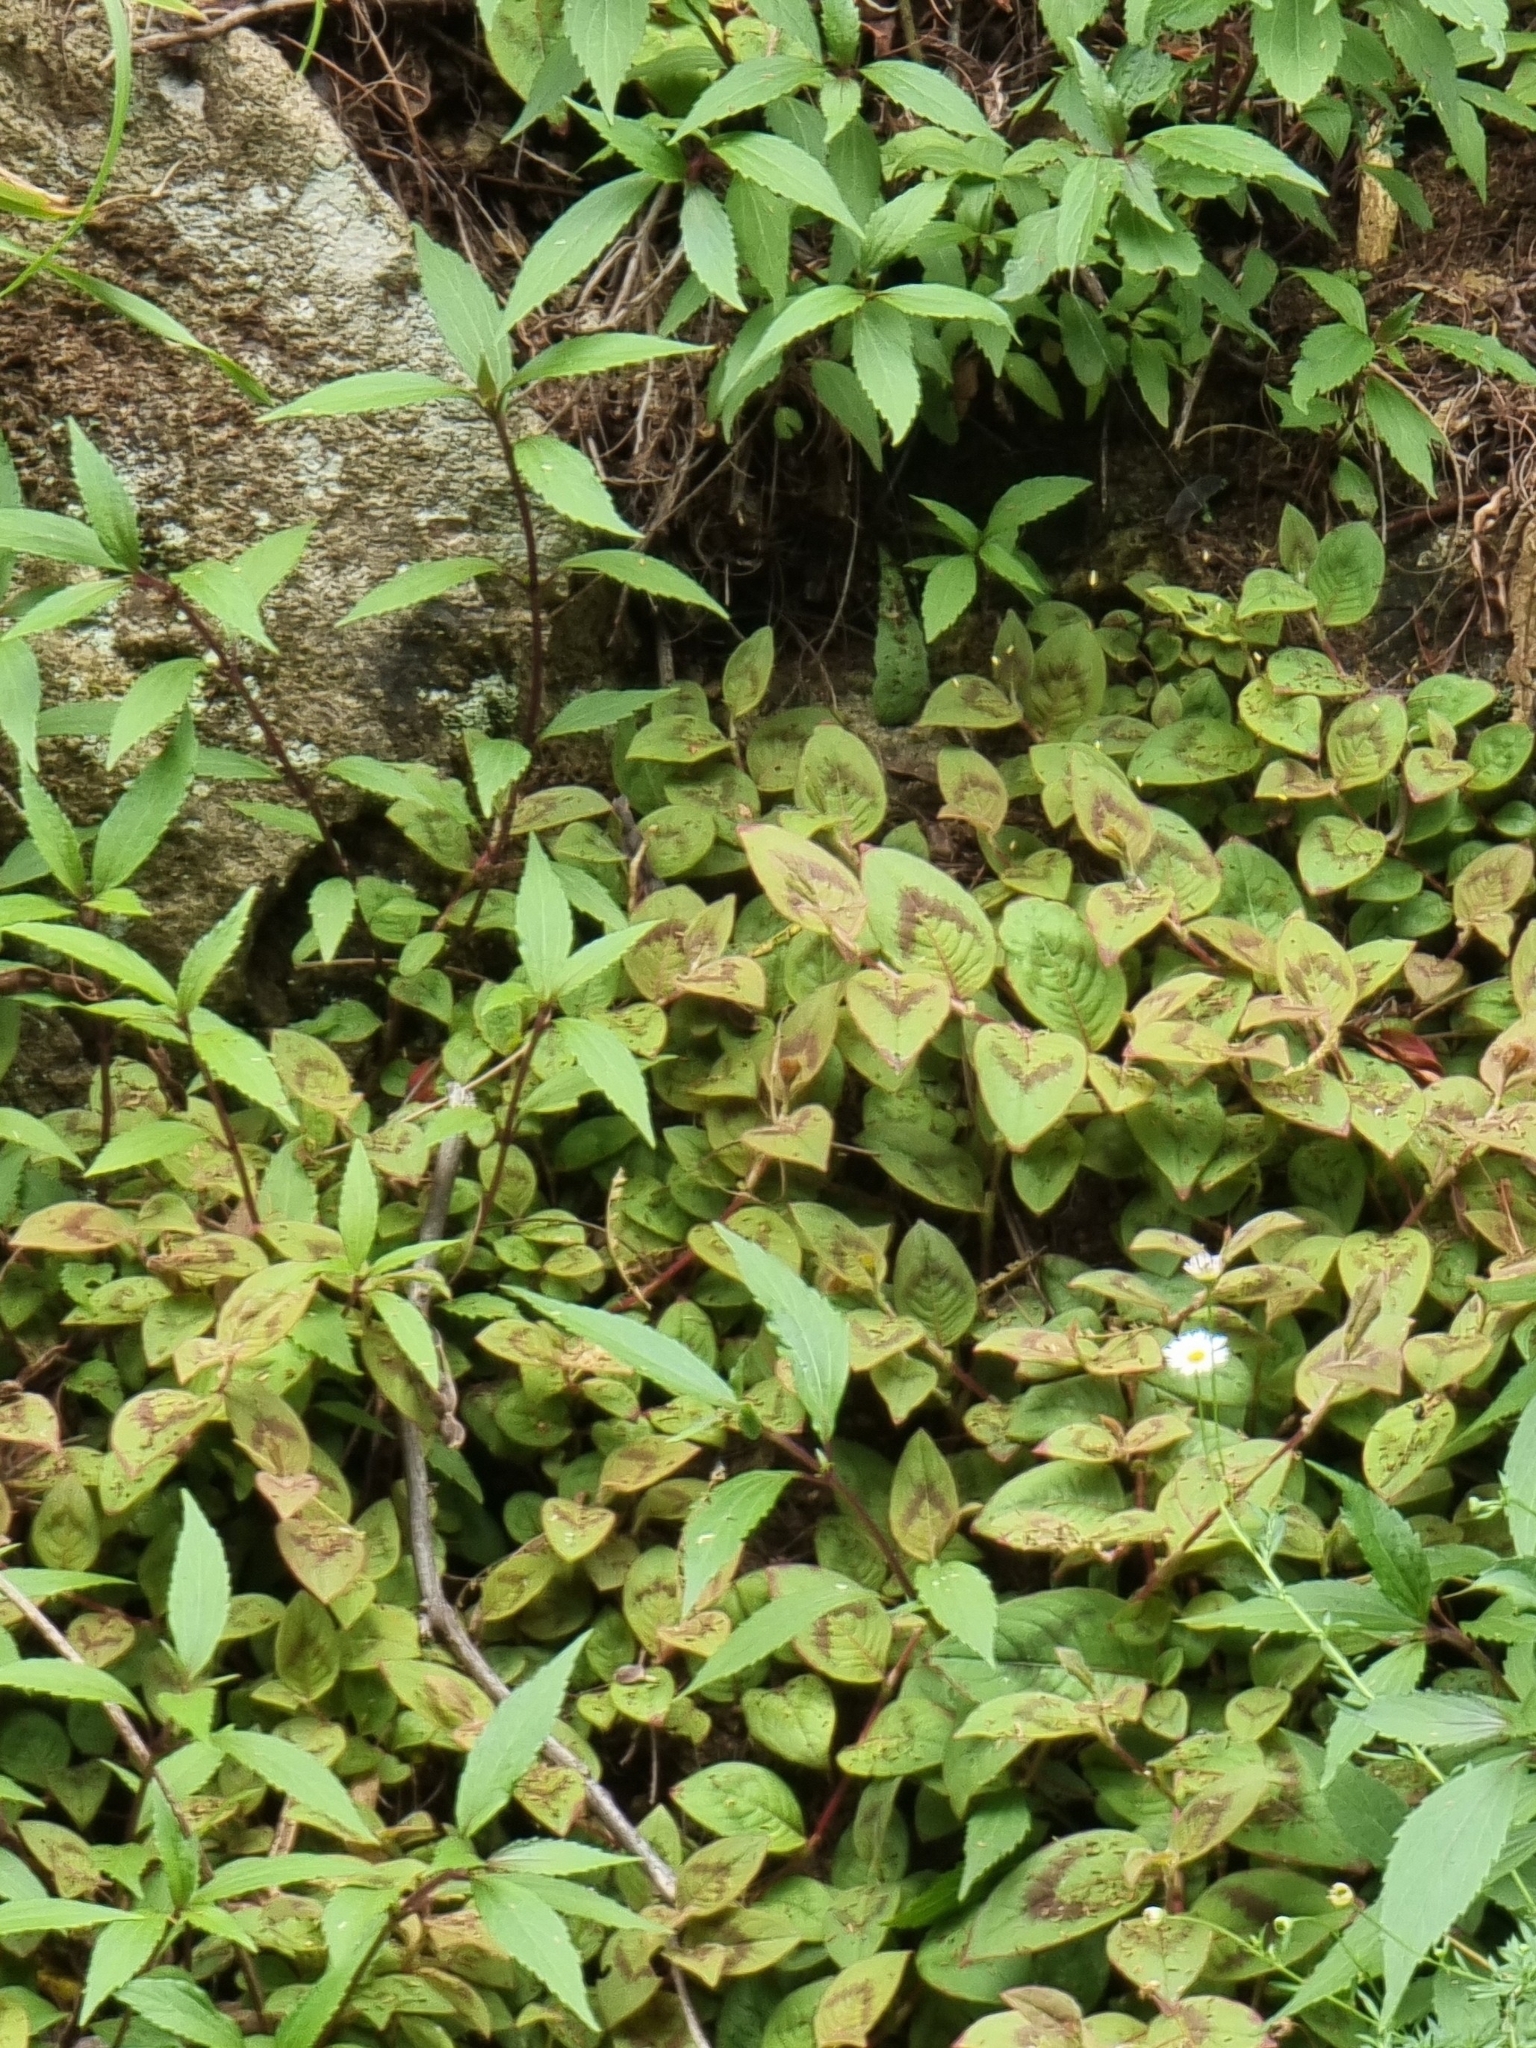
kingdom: Plantae
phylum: Tracheophyta
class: Magnoliopsida
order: Caryophyllales
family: Polygonaceae
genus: Persicaria
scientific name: Persicaria capitata
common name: Pinkhead smartweed
